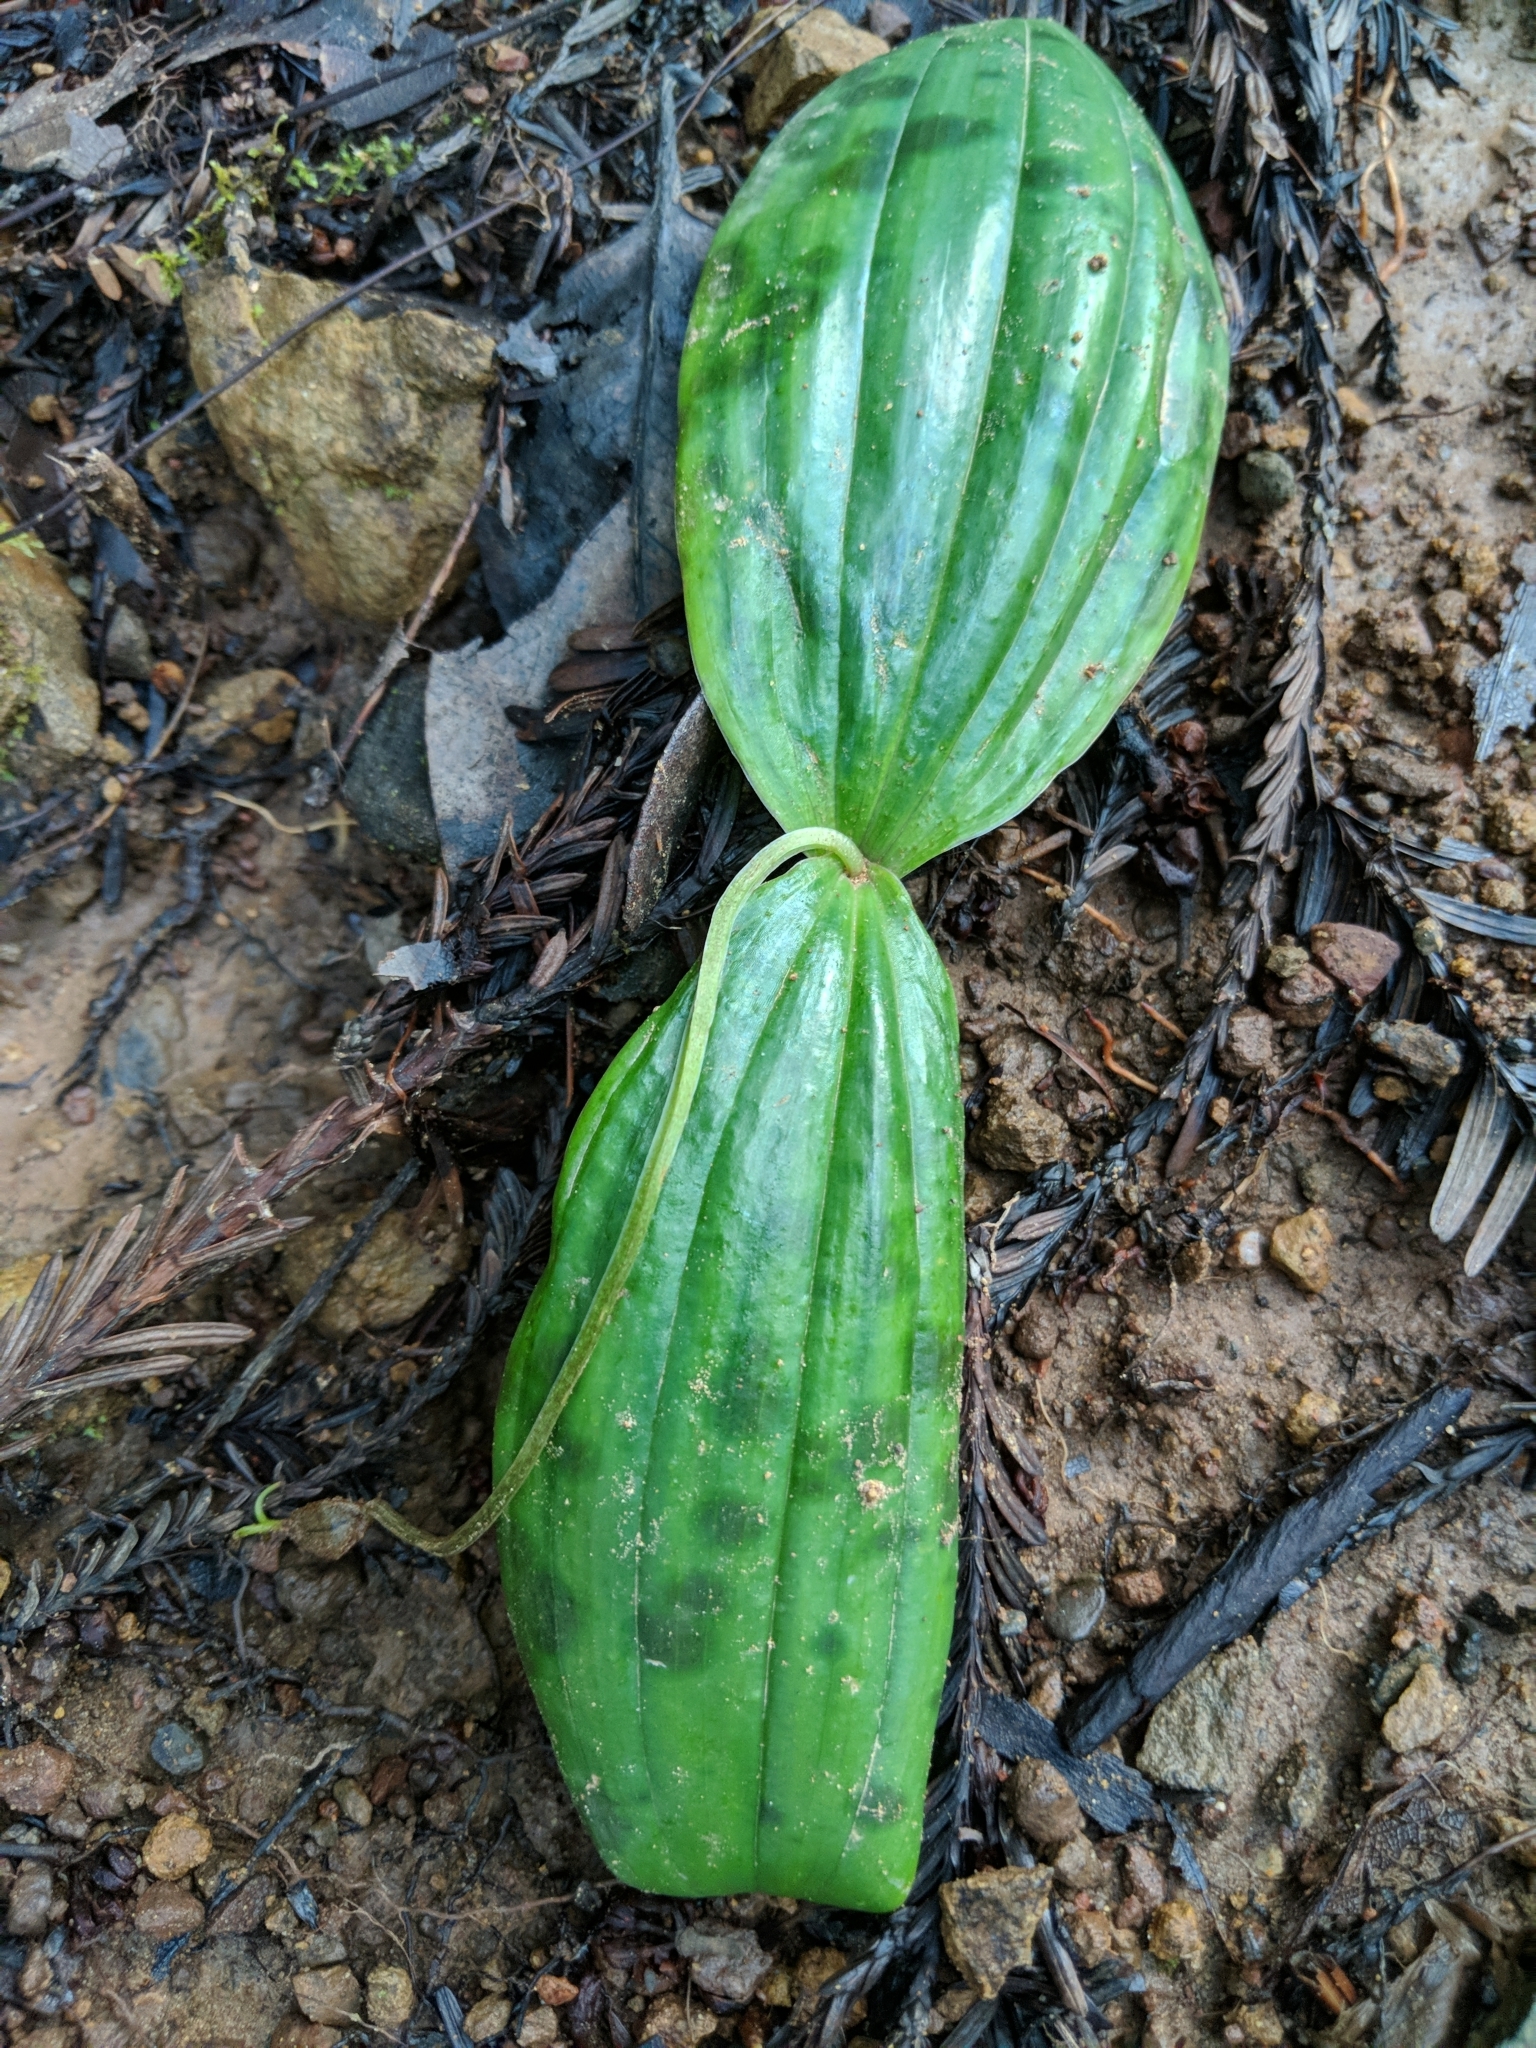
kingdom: Plantae
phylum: Tracheophyta
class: Liliopsida
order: Liliales
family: Liliaceae
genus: Scoliopus
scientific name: Scoliopus bigelovii
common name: Foetid adder's-tongue
